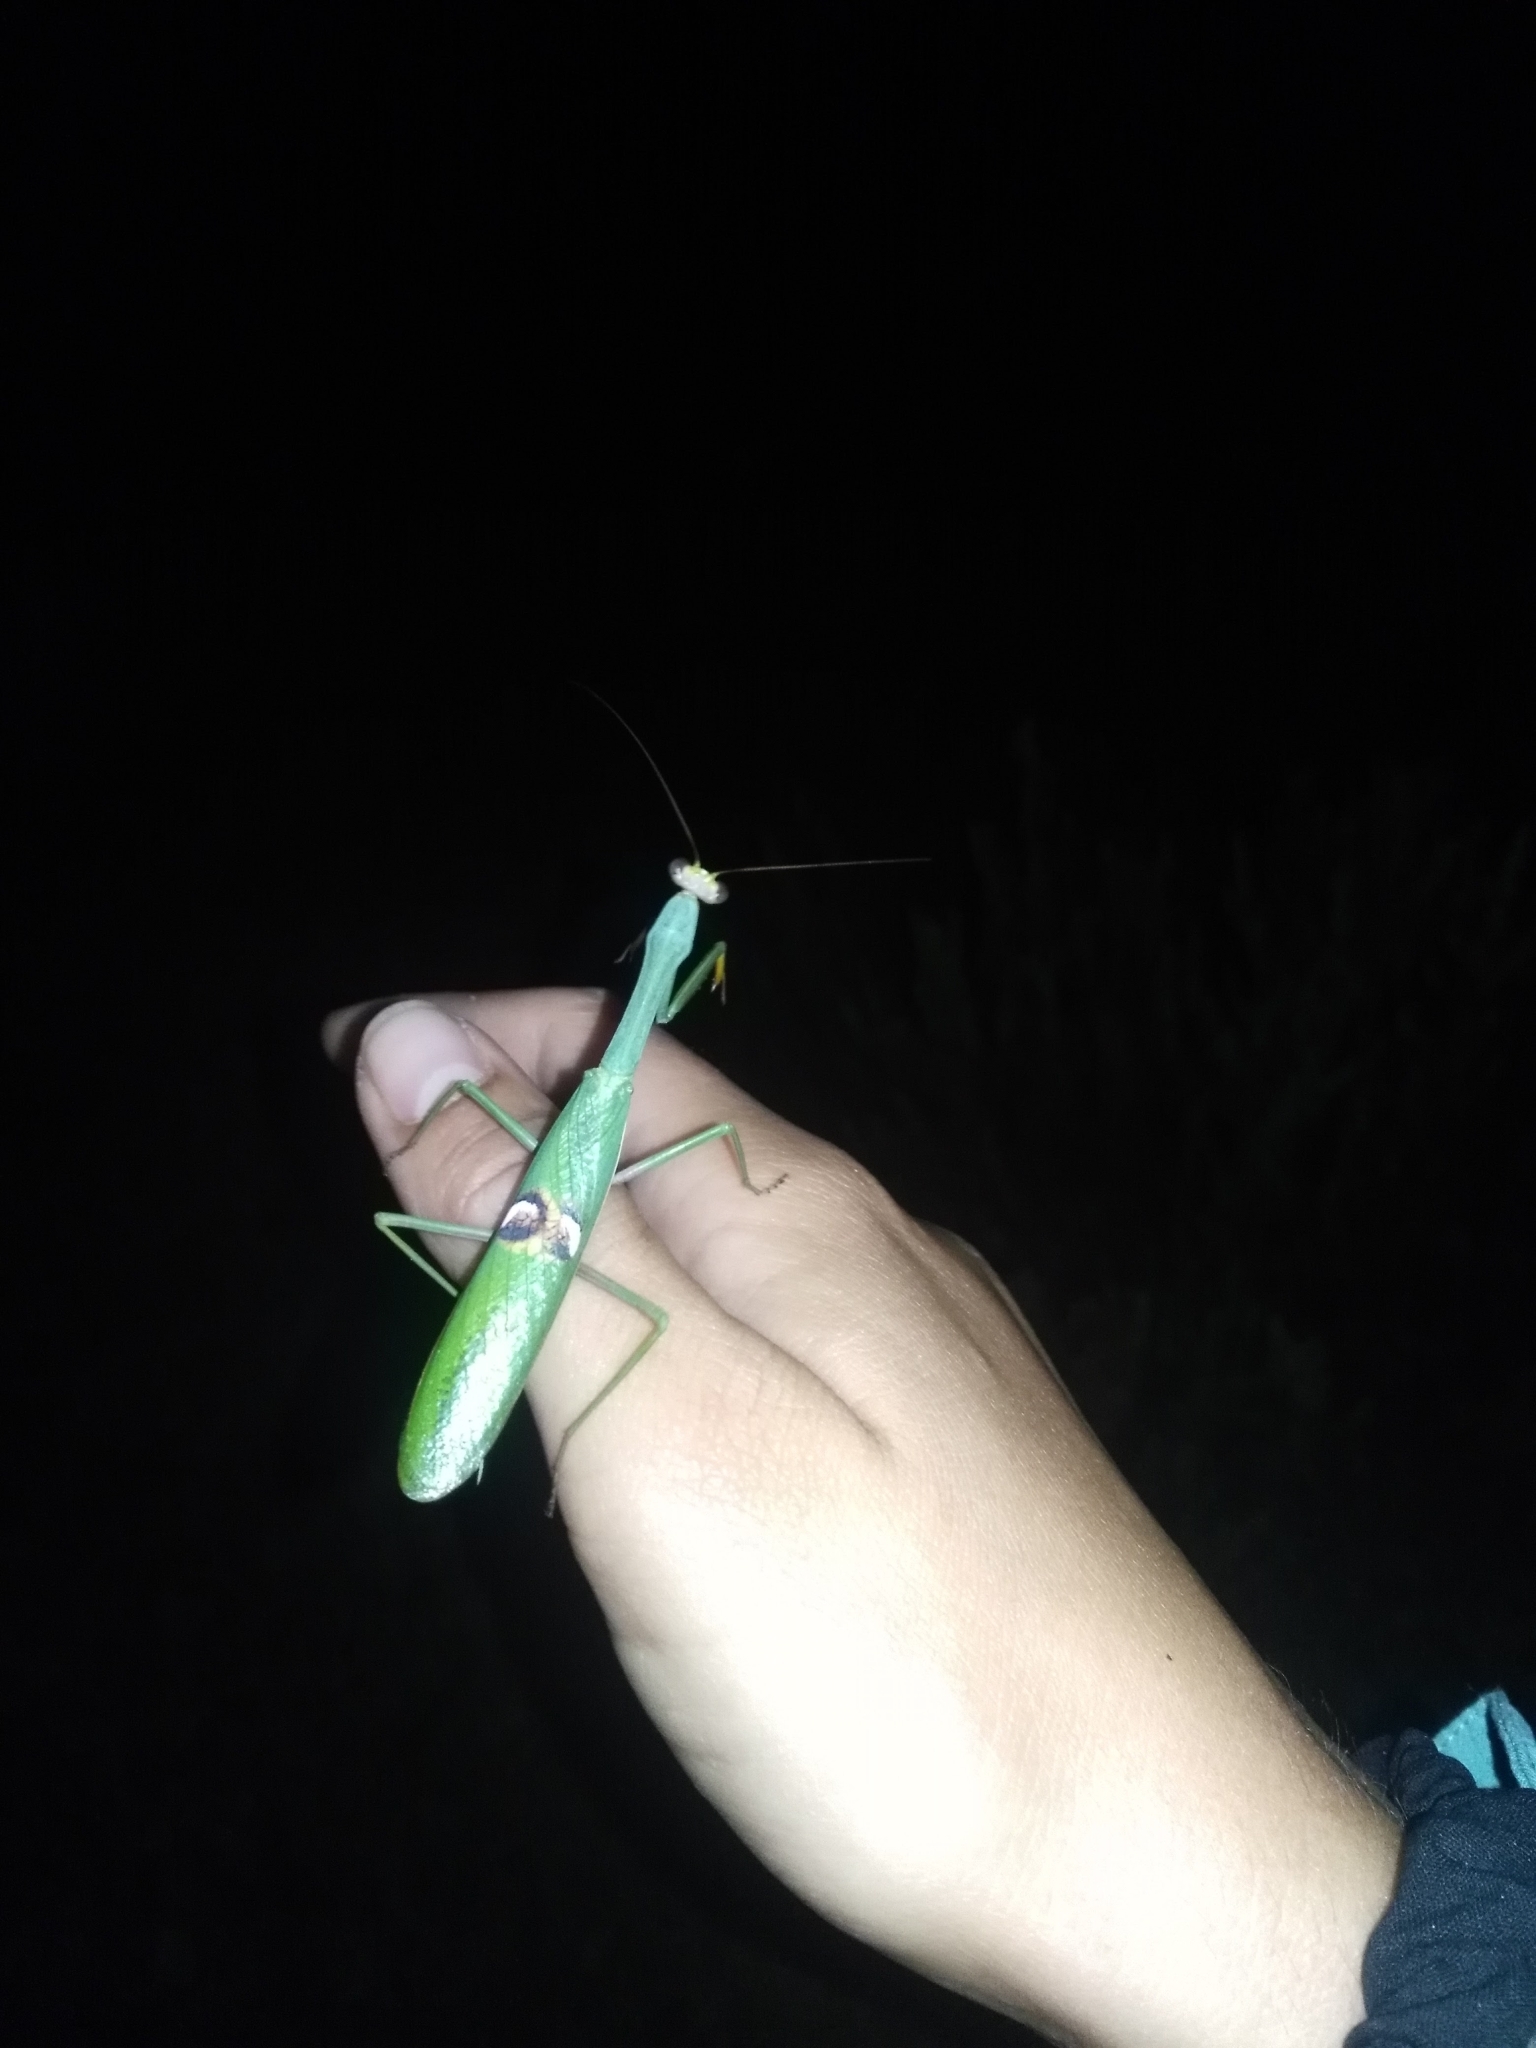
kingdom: Animalia
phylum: Arthropoda
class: Insecta
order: Mantodea
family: Mantidae
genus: Stagmatoptera
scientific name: Stagmatoptera hyaloptera
